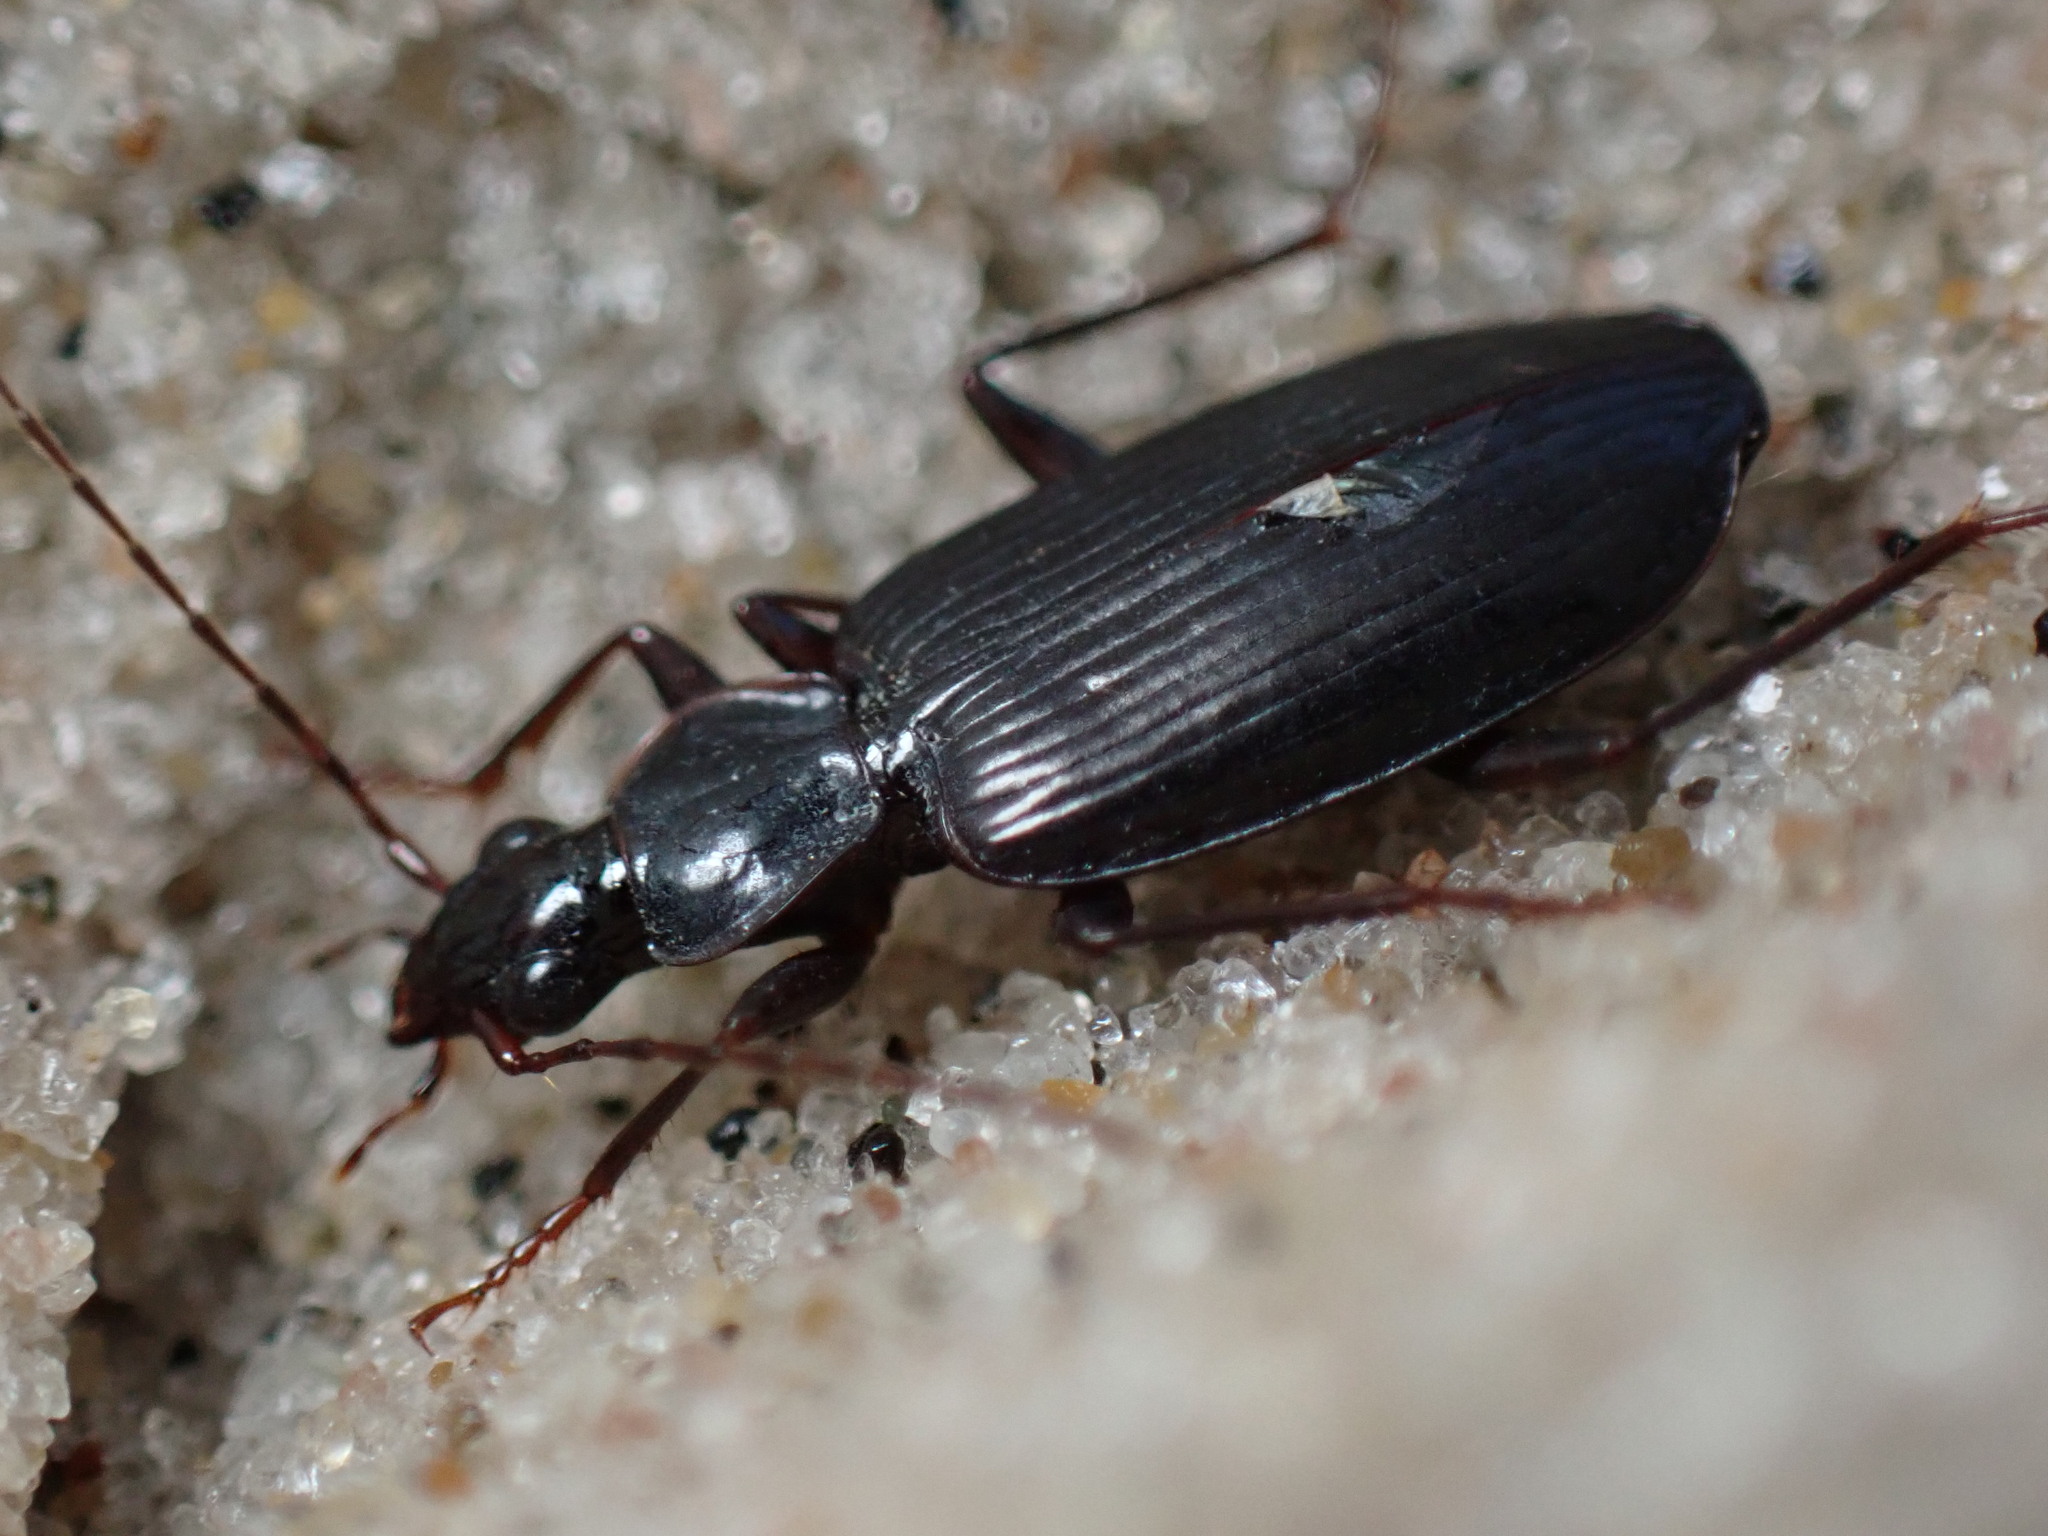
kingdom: Animalia
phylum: Arthropoda
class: Insecta
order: Coleoptera
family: Carabidae
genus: Platynus
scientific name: Platynus cincticollis
